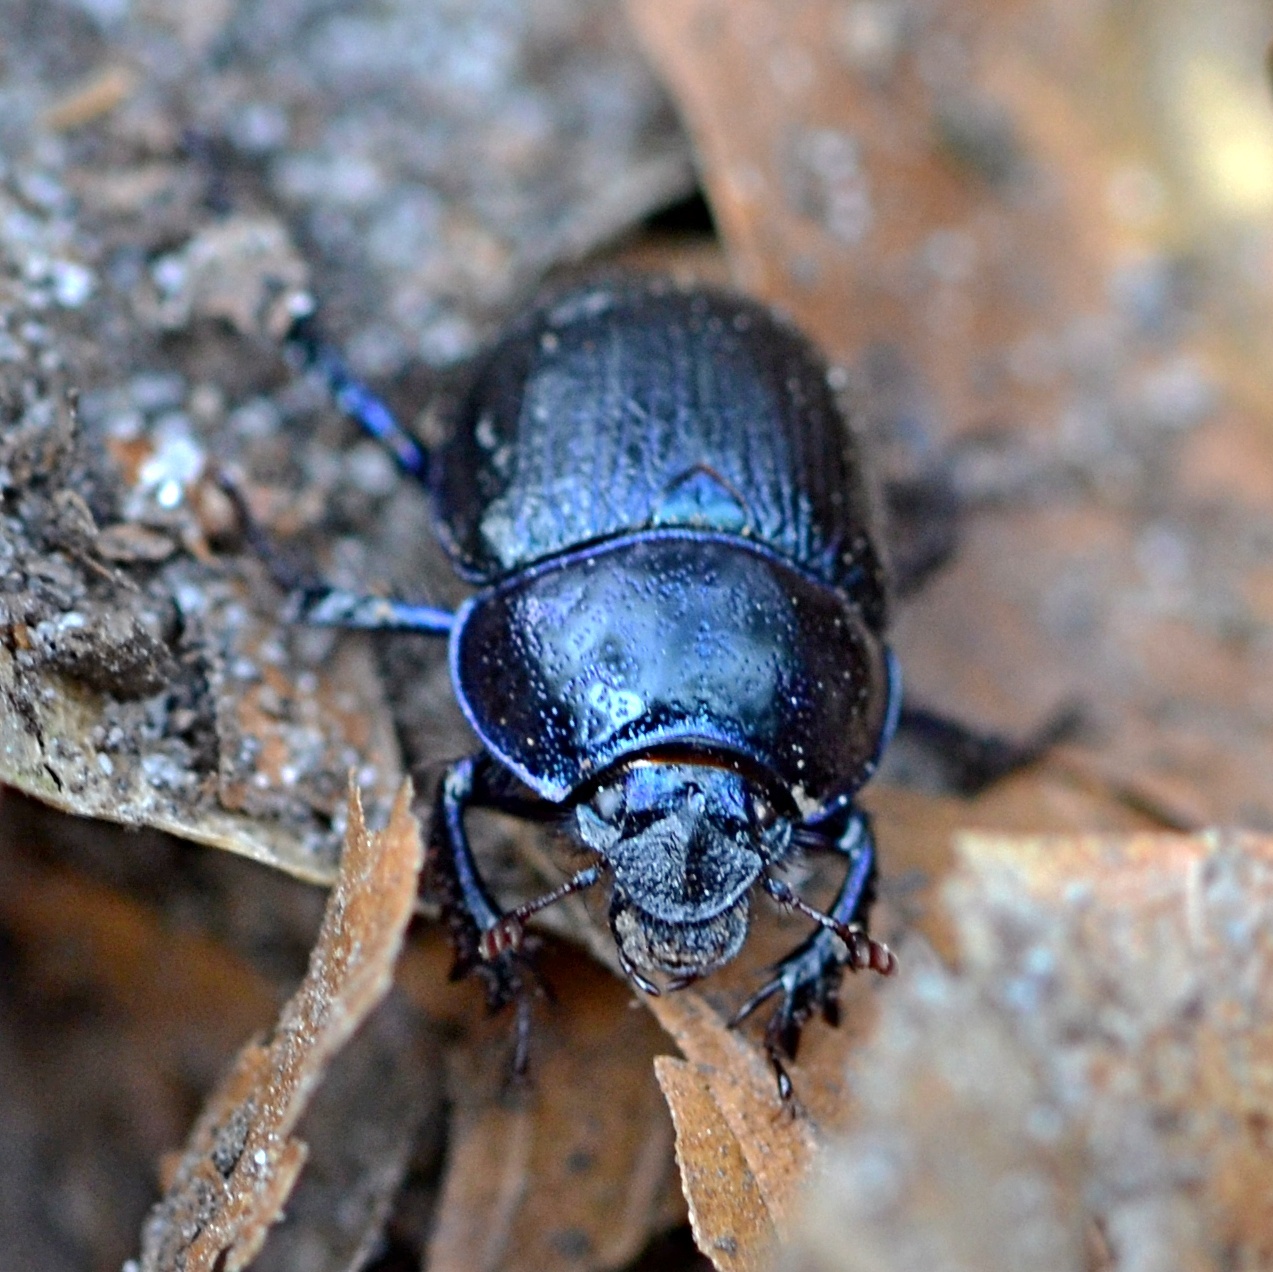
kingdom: Animalia
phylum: Arthropoda
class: Insecta
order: Coleoptera
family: Geotrupidae
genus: Anoplotrupes
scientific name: Anoplotrupes stercorosus
